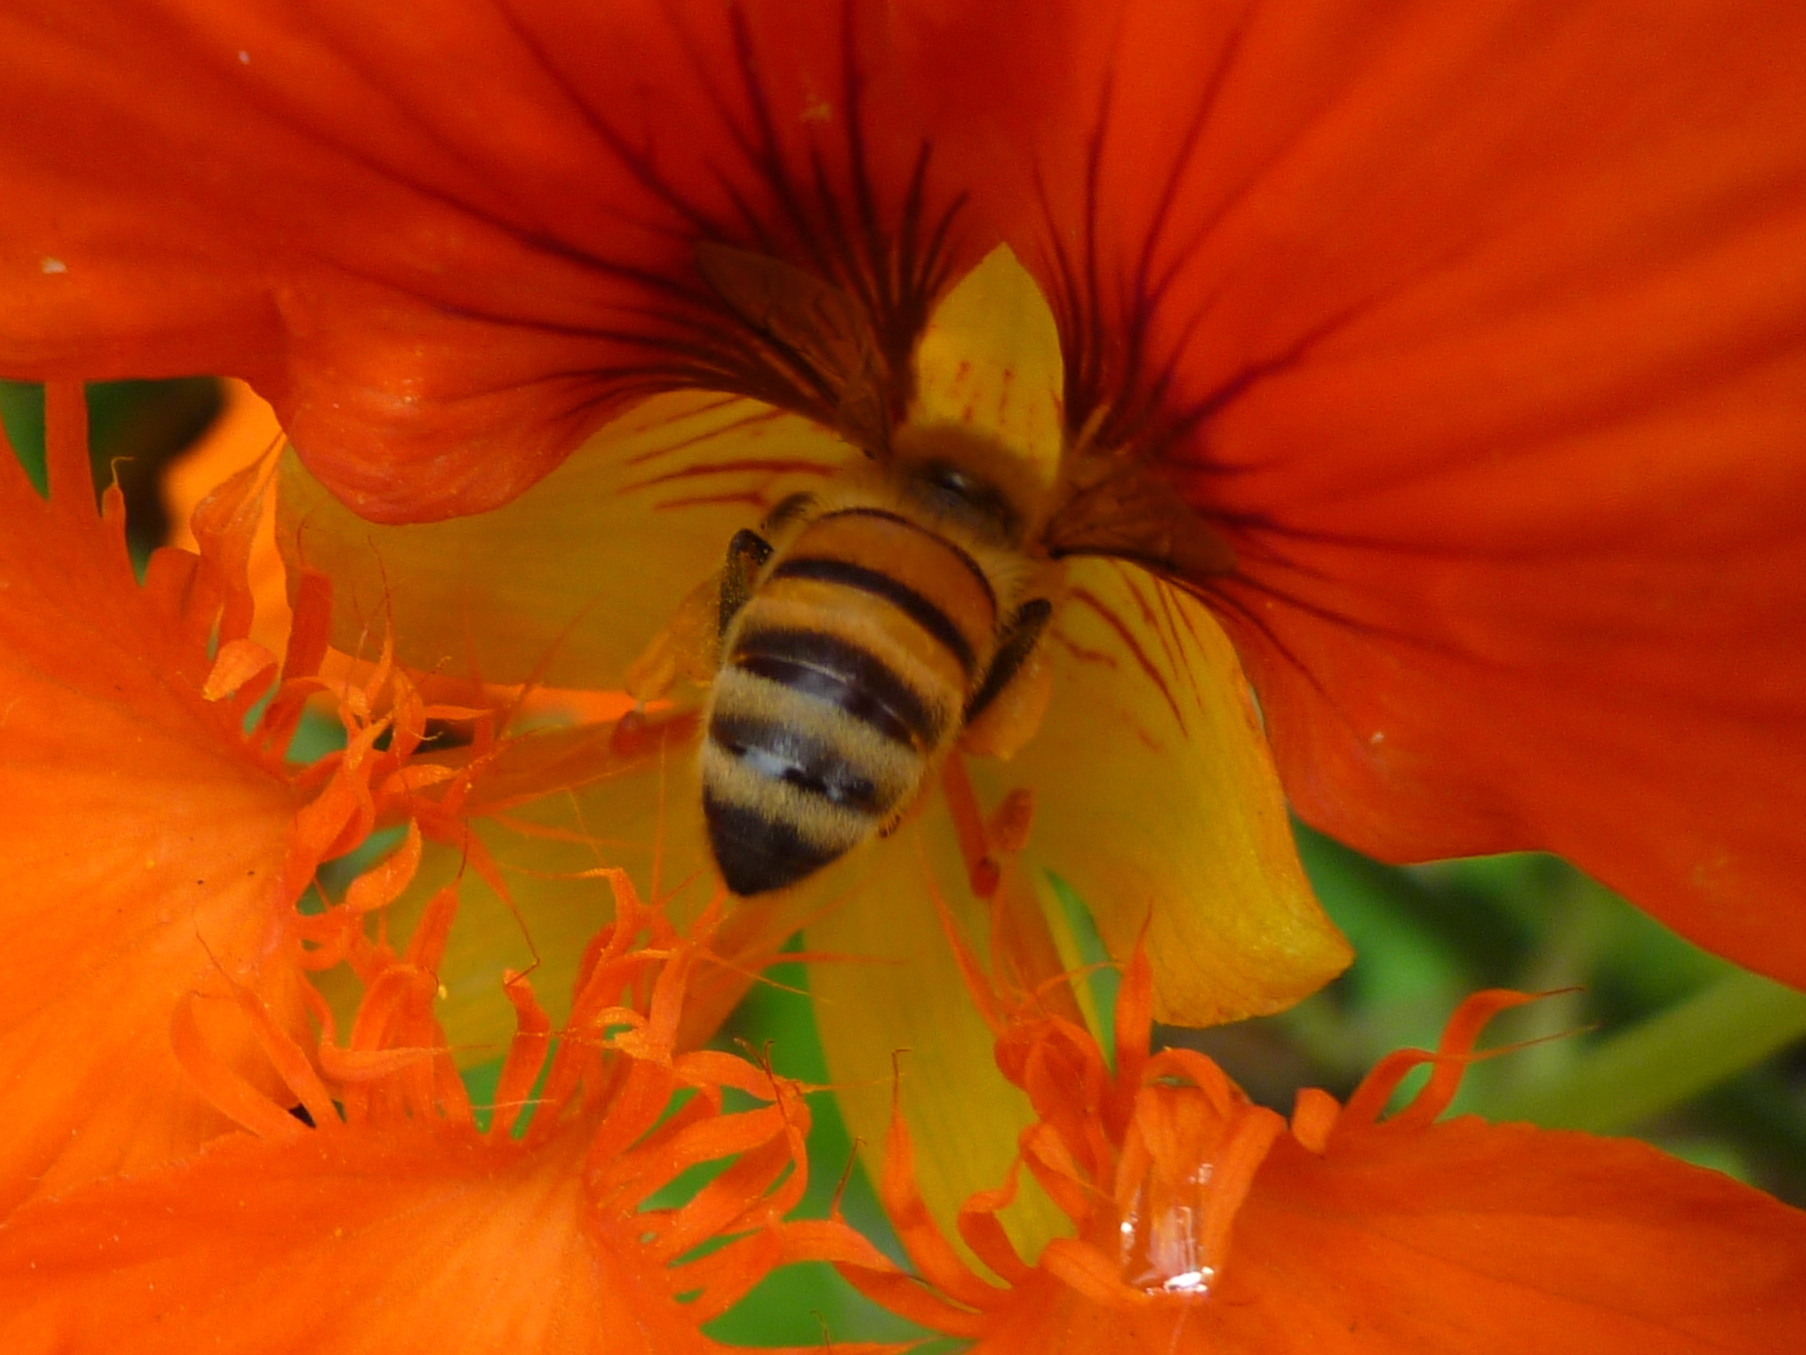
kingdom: Animalia
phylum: Arthropoda
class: Insecta
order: Hymenoptera
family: Apidae
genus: Apis
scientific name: Apis mellifera
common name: Honey bee
